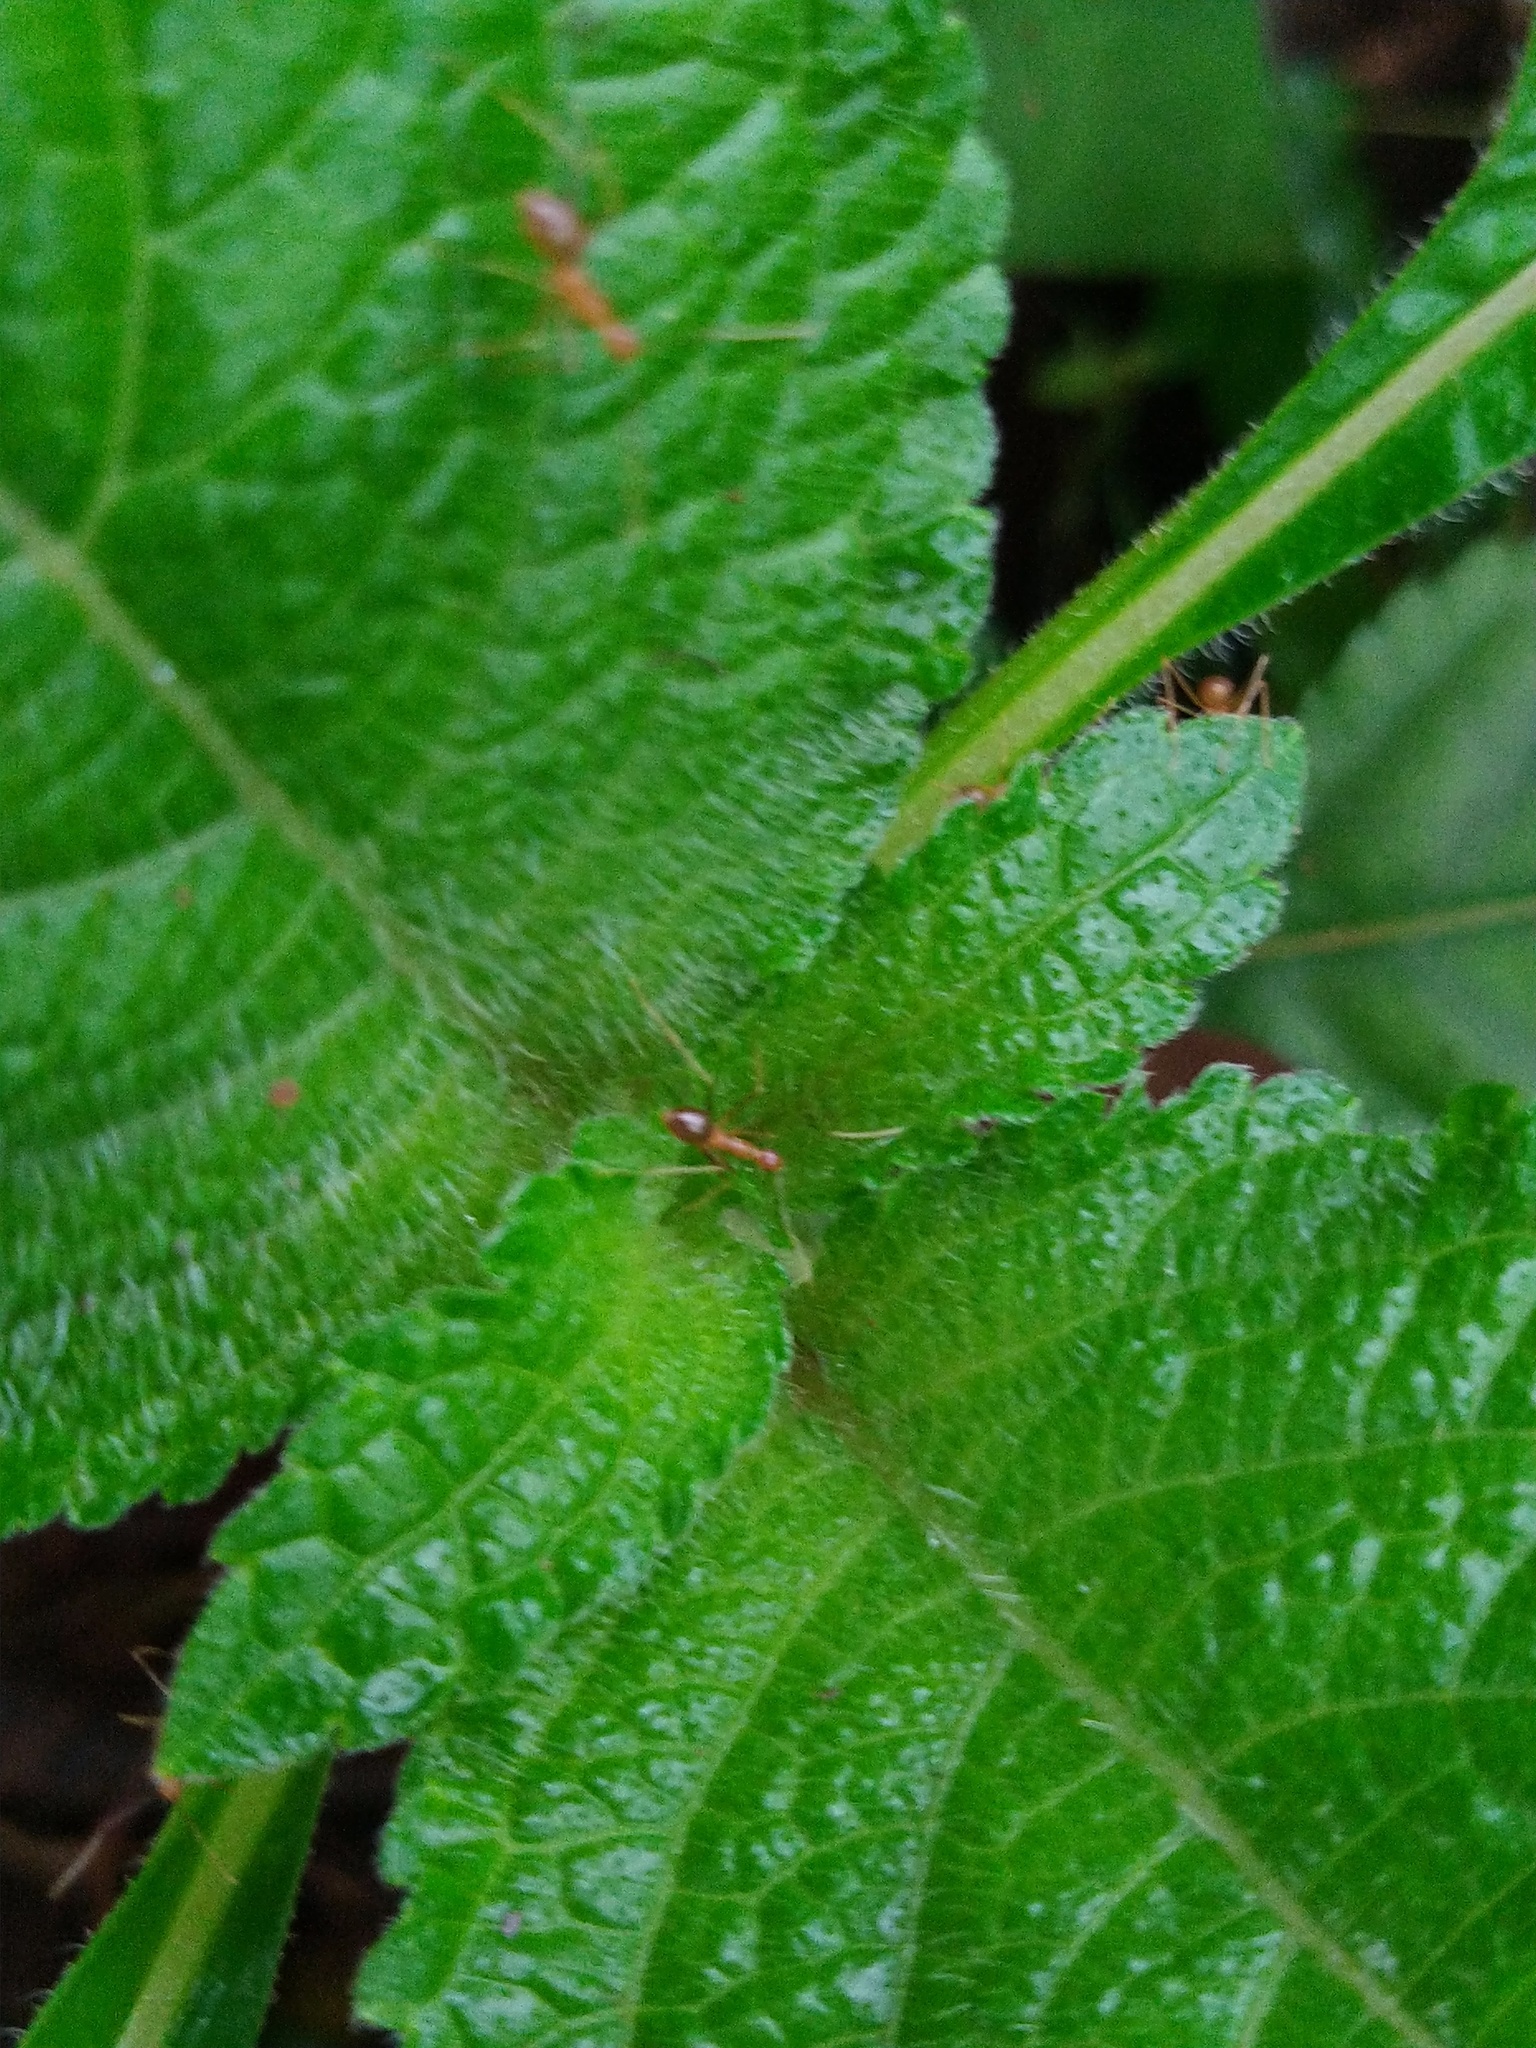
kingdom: Animalia
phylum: Arthropoda
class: Insecta
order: Hymenoptera
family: Formicidae
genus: Anoplolepis
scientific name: Anoplolepis gracilipes
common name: Ant
